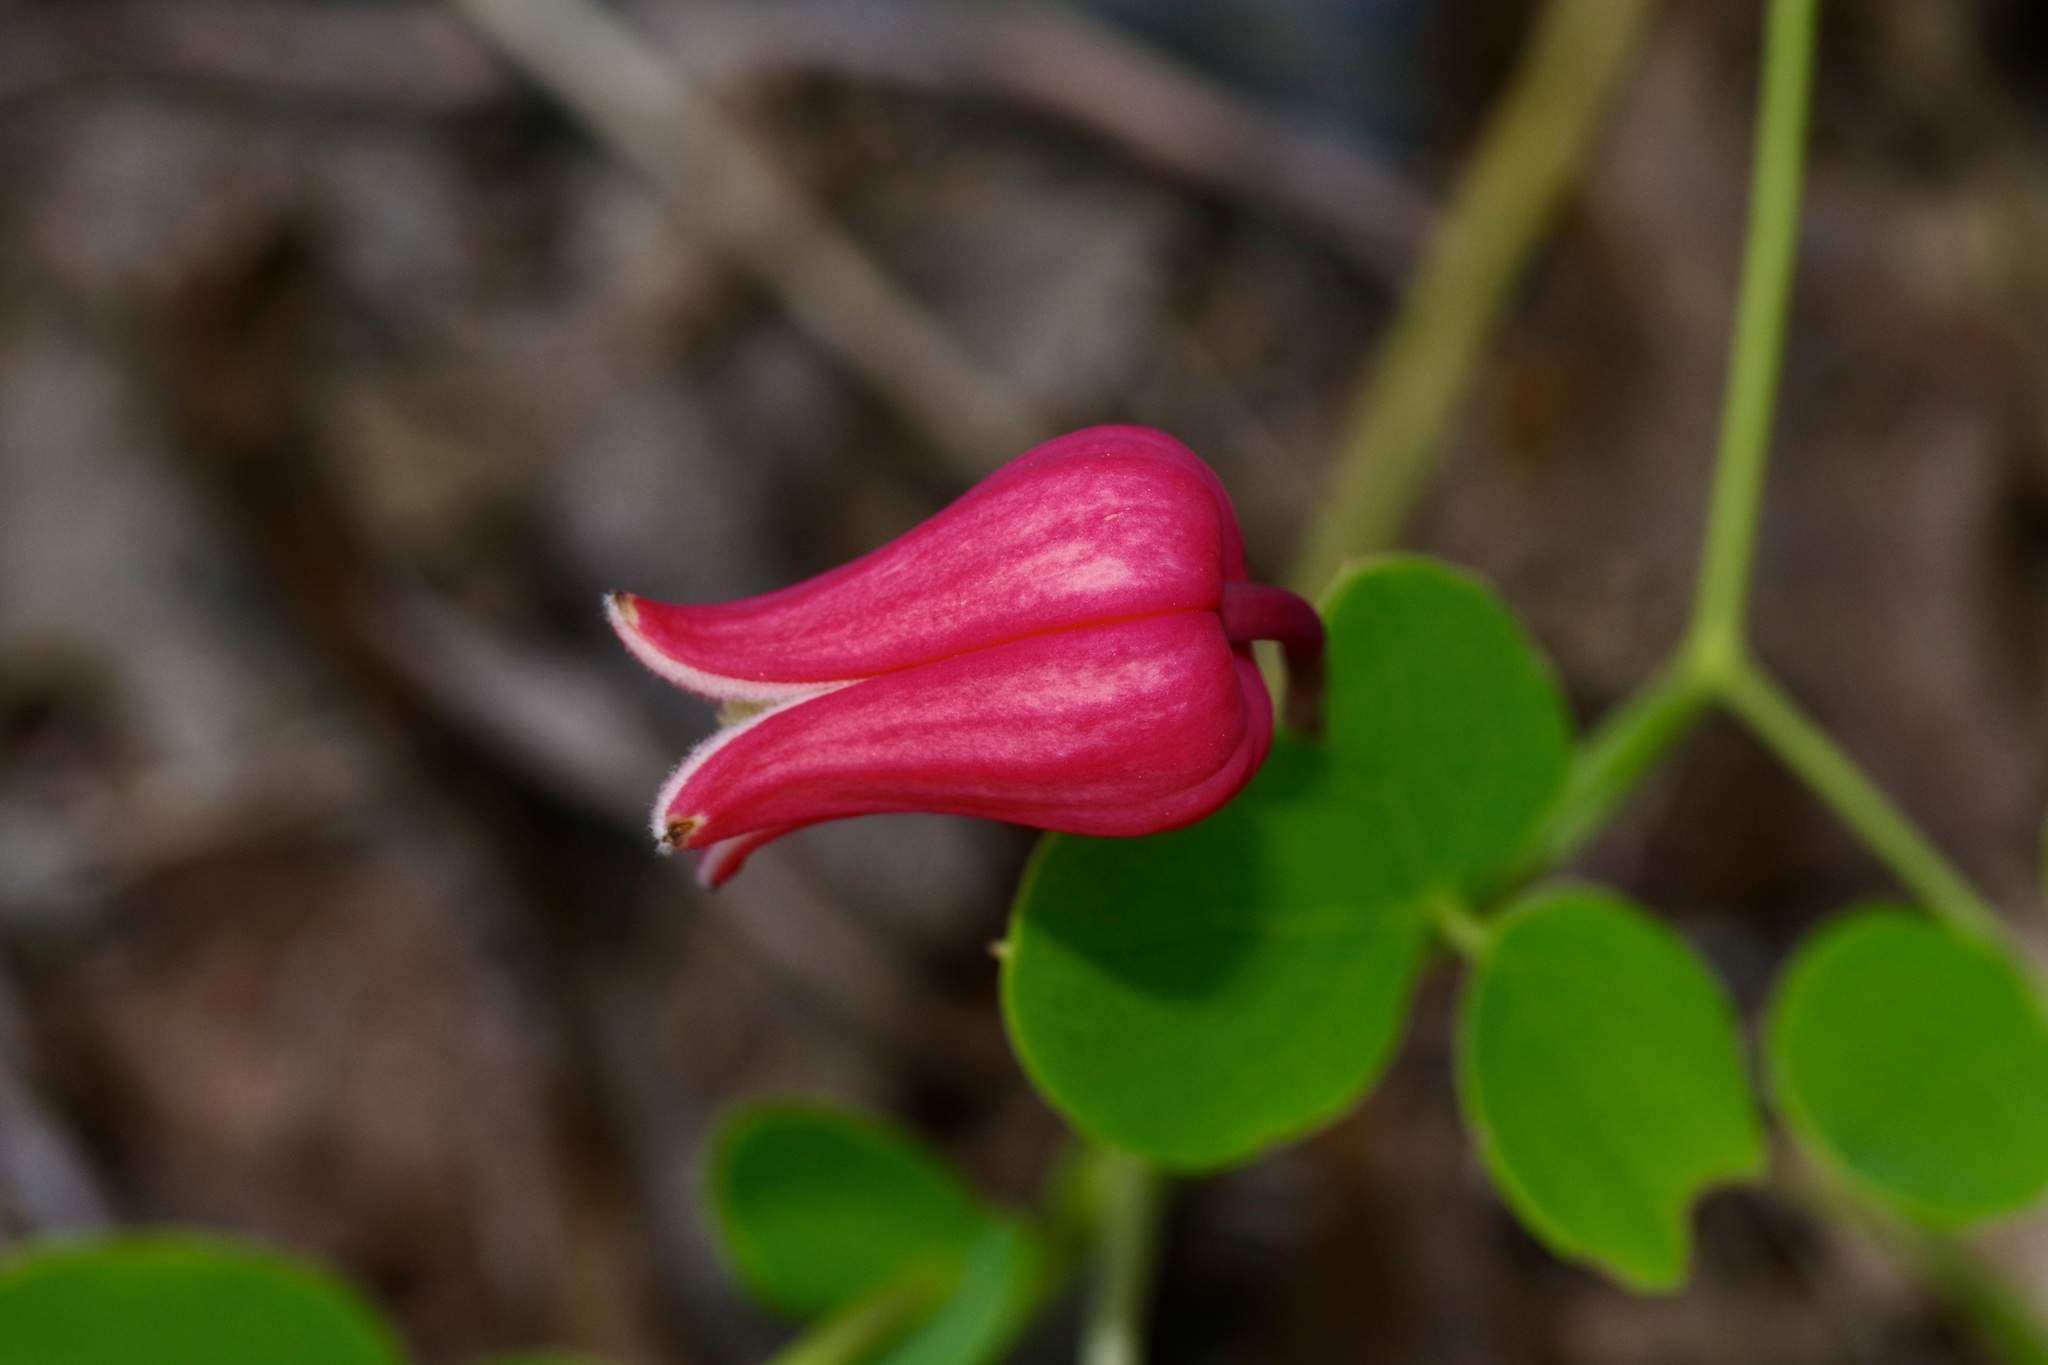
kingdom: Plantae
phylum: Tracheophyta
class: Magnoliopsida
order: Ranunculales
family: Ranunculaceae
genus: Clematis
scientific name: Clematis texensis
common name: Crimson clematis
